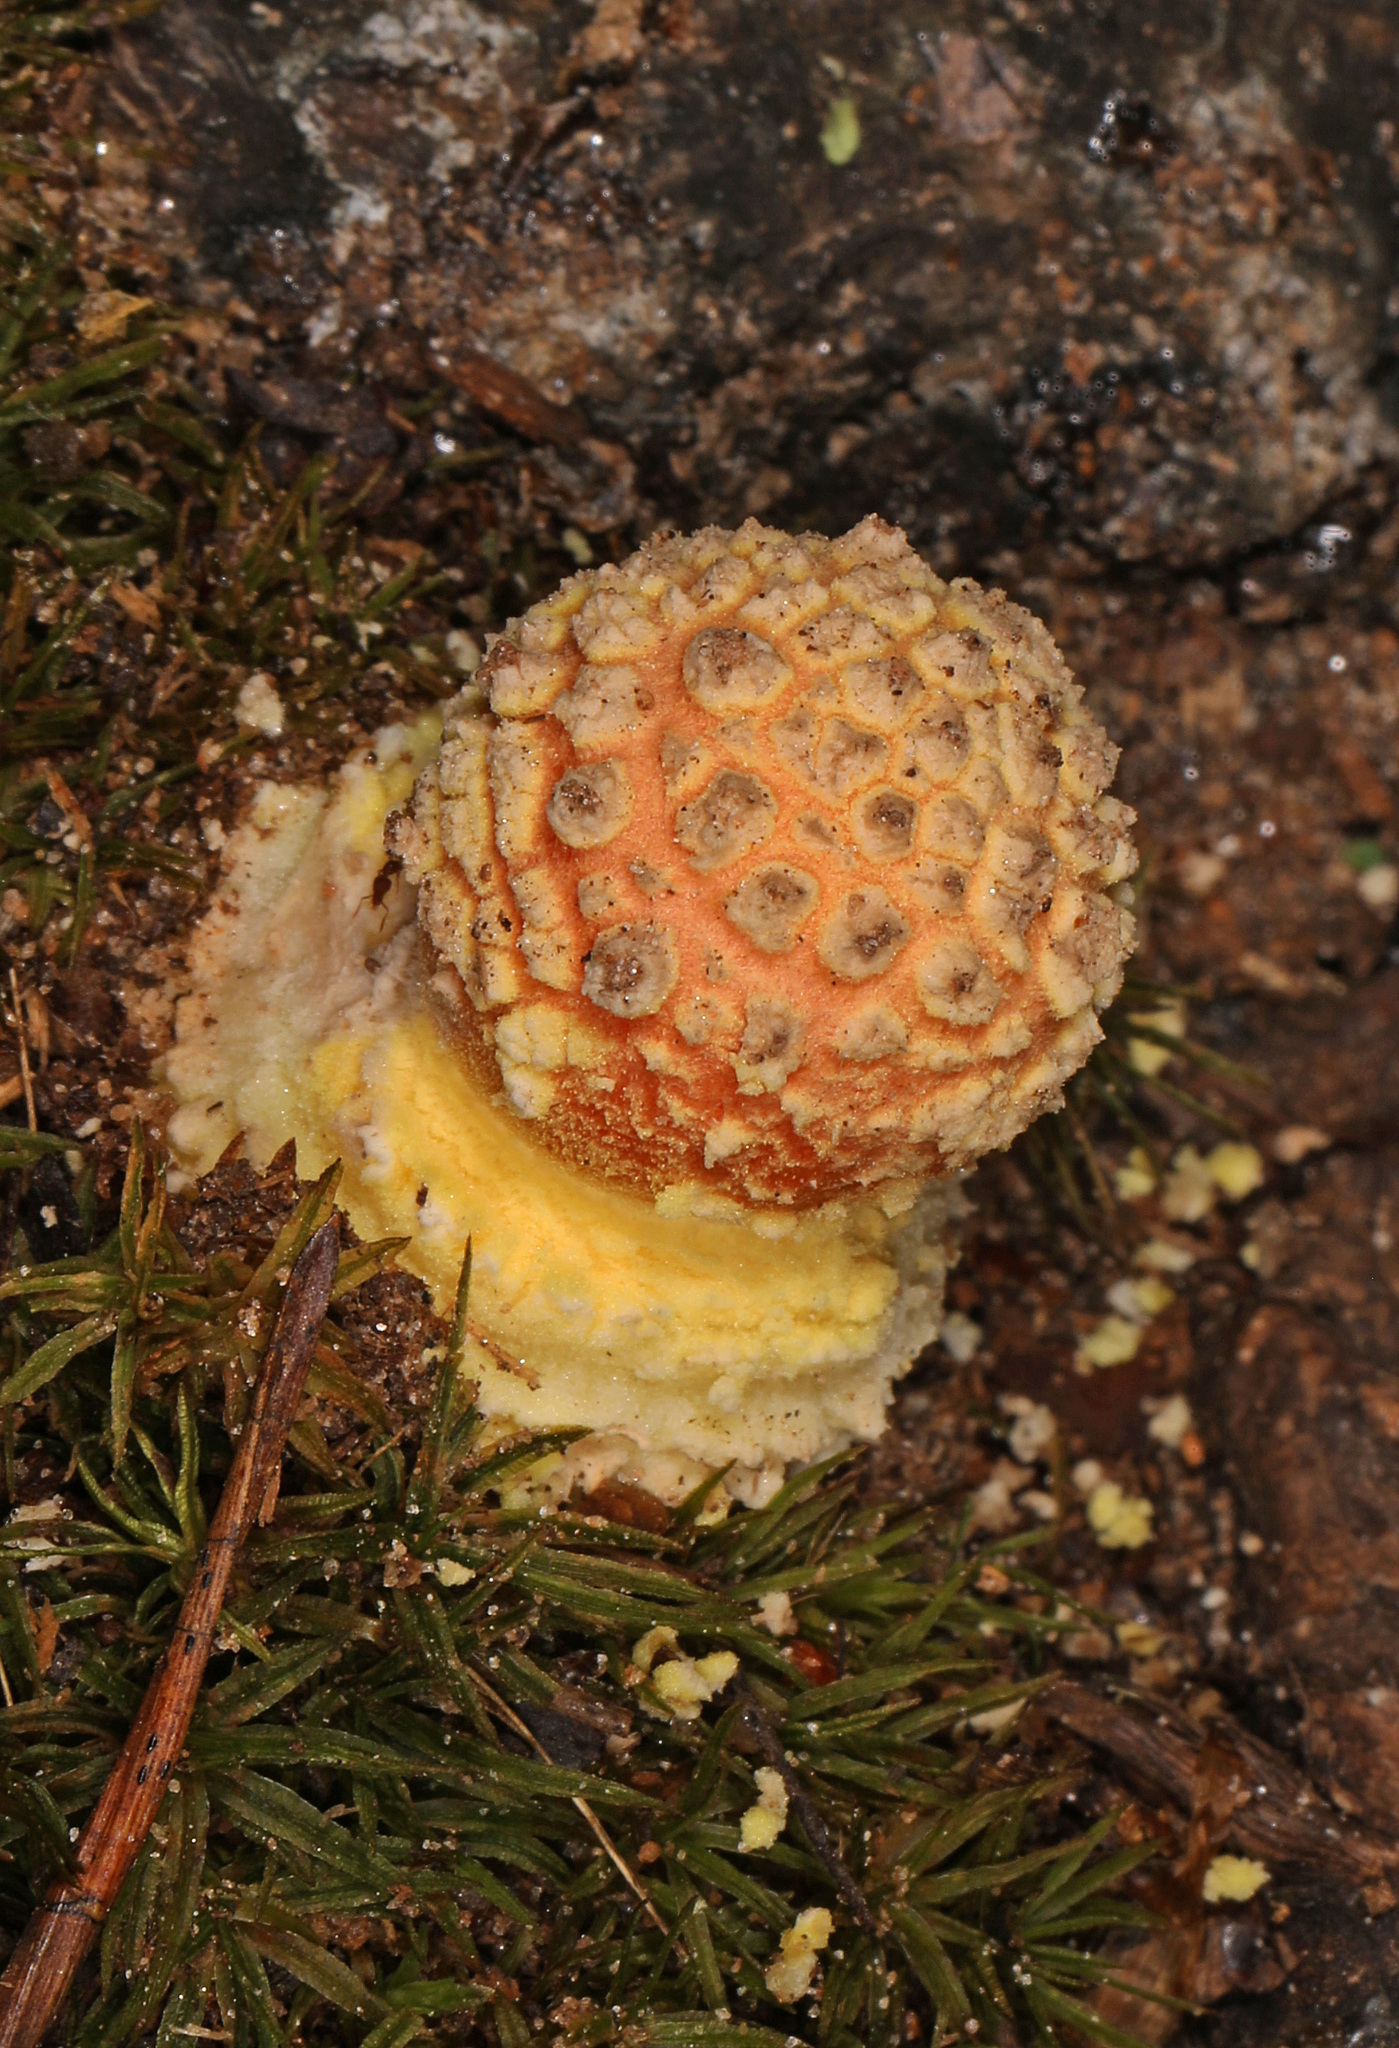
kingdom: Fungi
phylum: Basidiomycota
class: Agaricomycetes
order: Agaricales
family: Amanitaceae
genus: Amanita
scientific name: Amanita persicina
